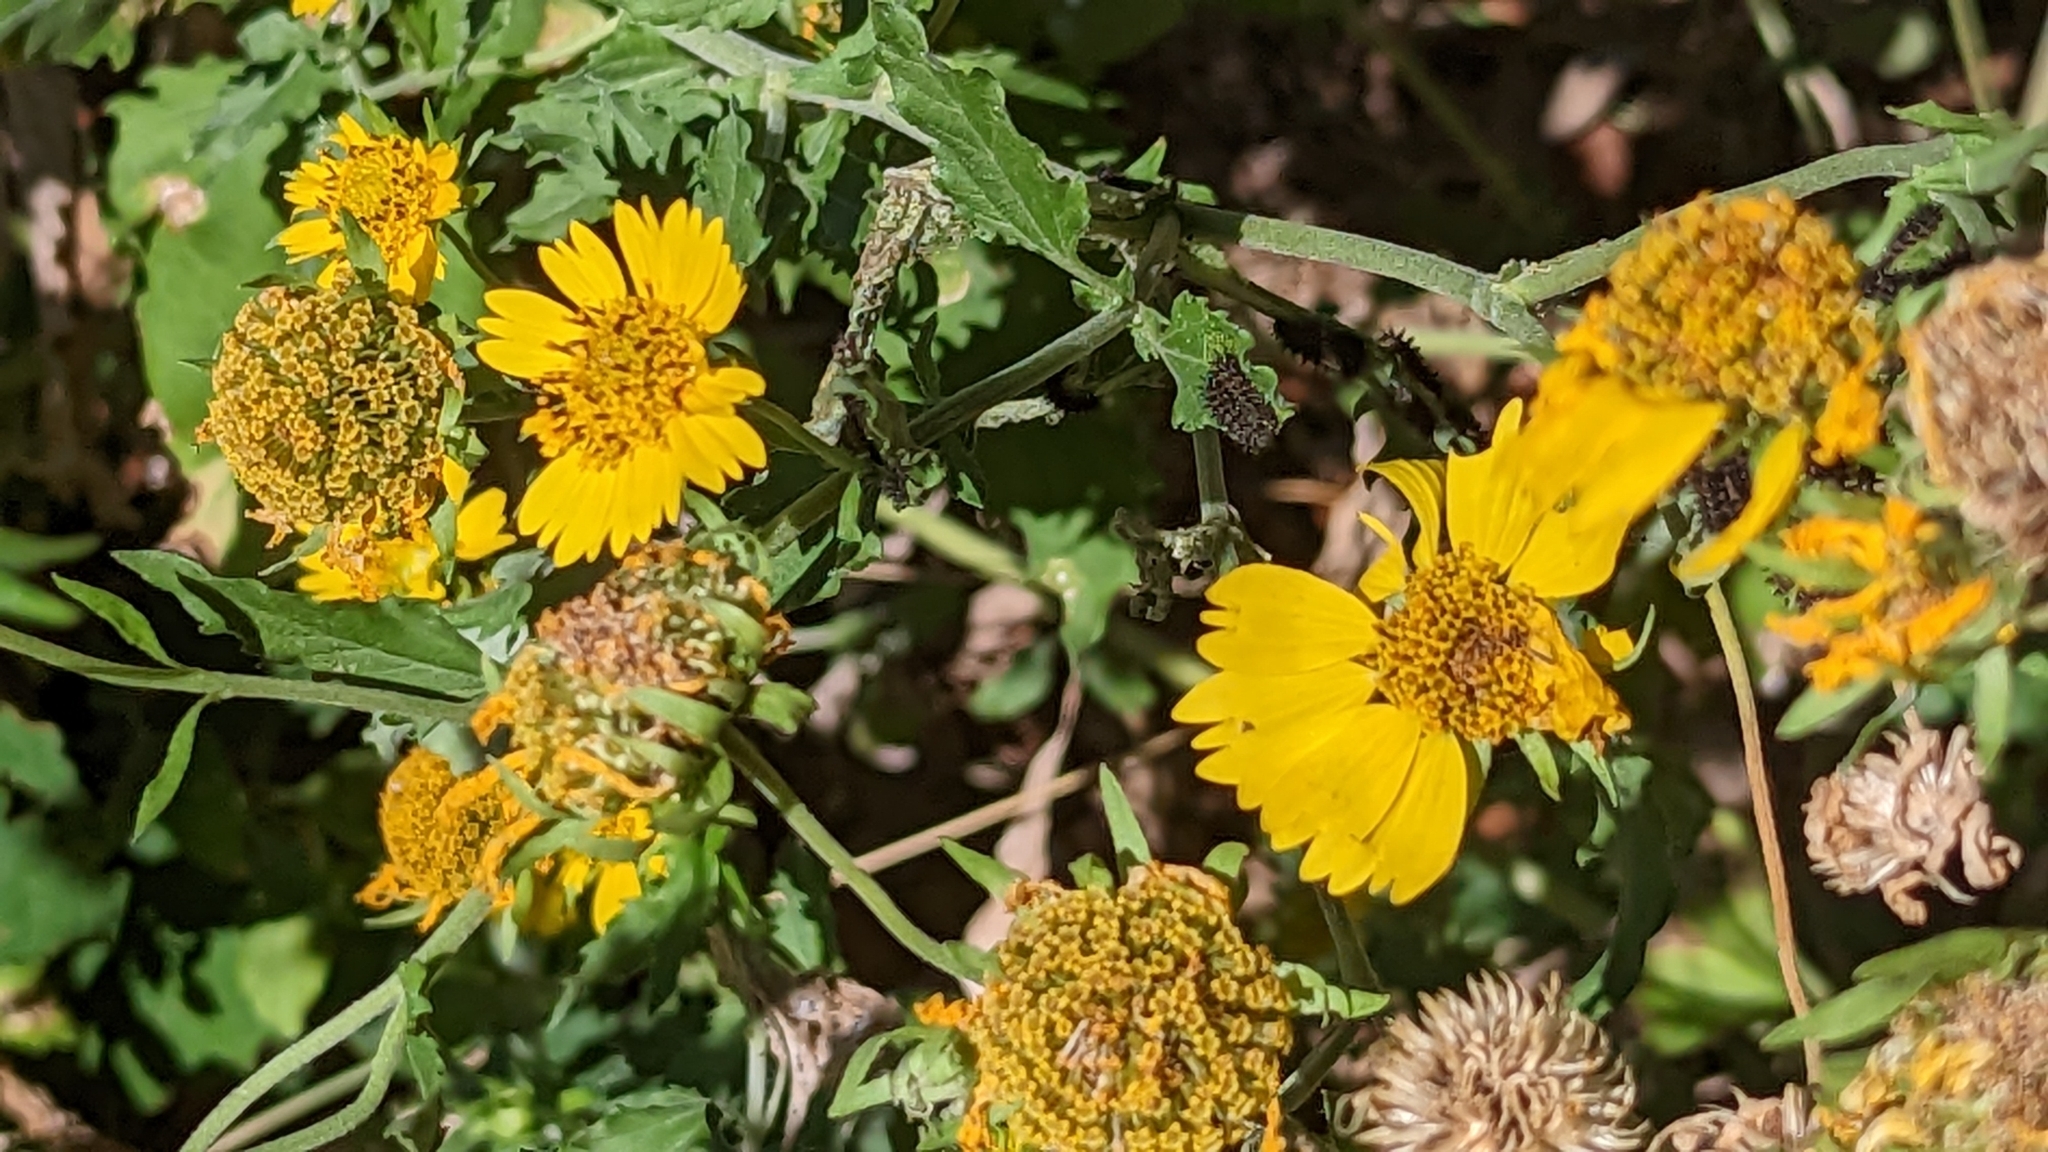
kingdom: Plantae
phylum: Tracheophyta
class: Magnoliopsida
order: Asterales
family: Asteraceae
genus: Verbesina
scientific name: Verbesina encelioides
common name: Golden crownbeard
